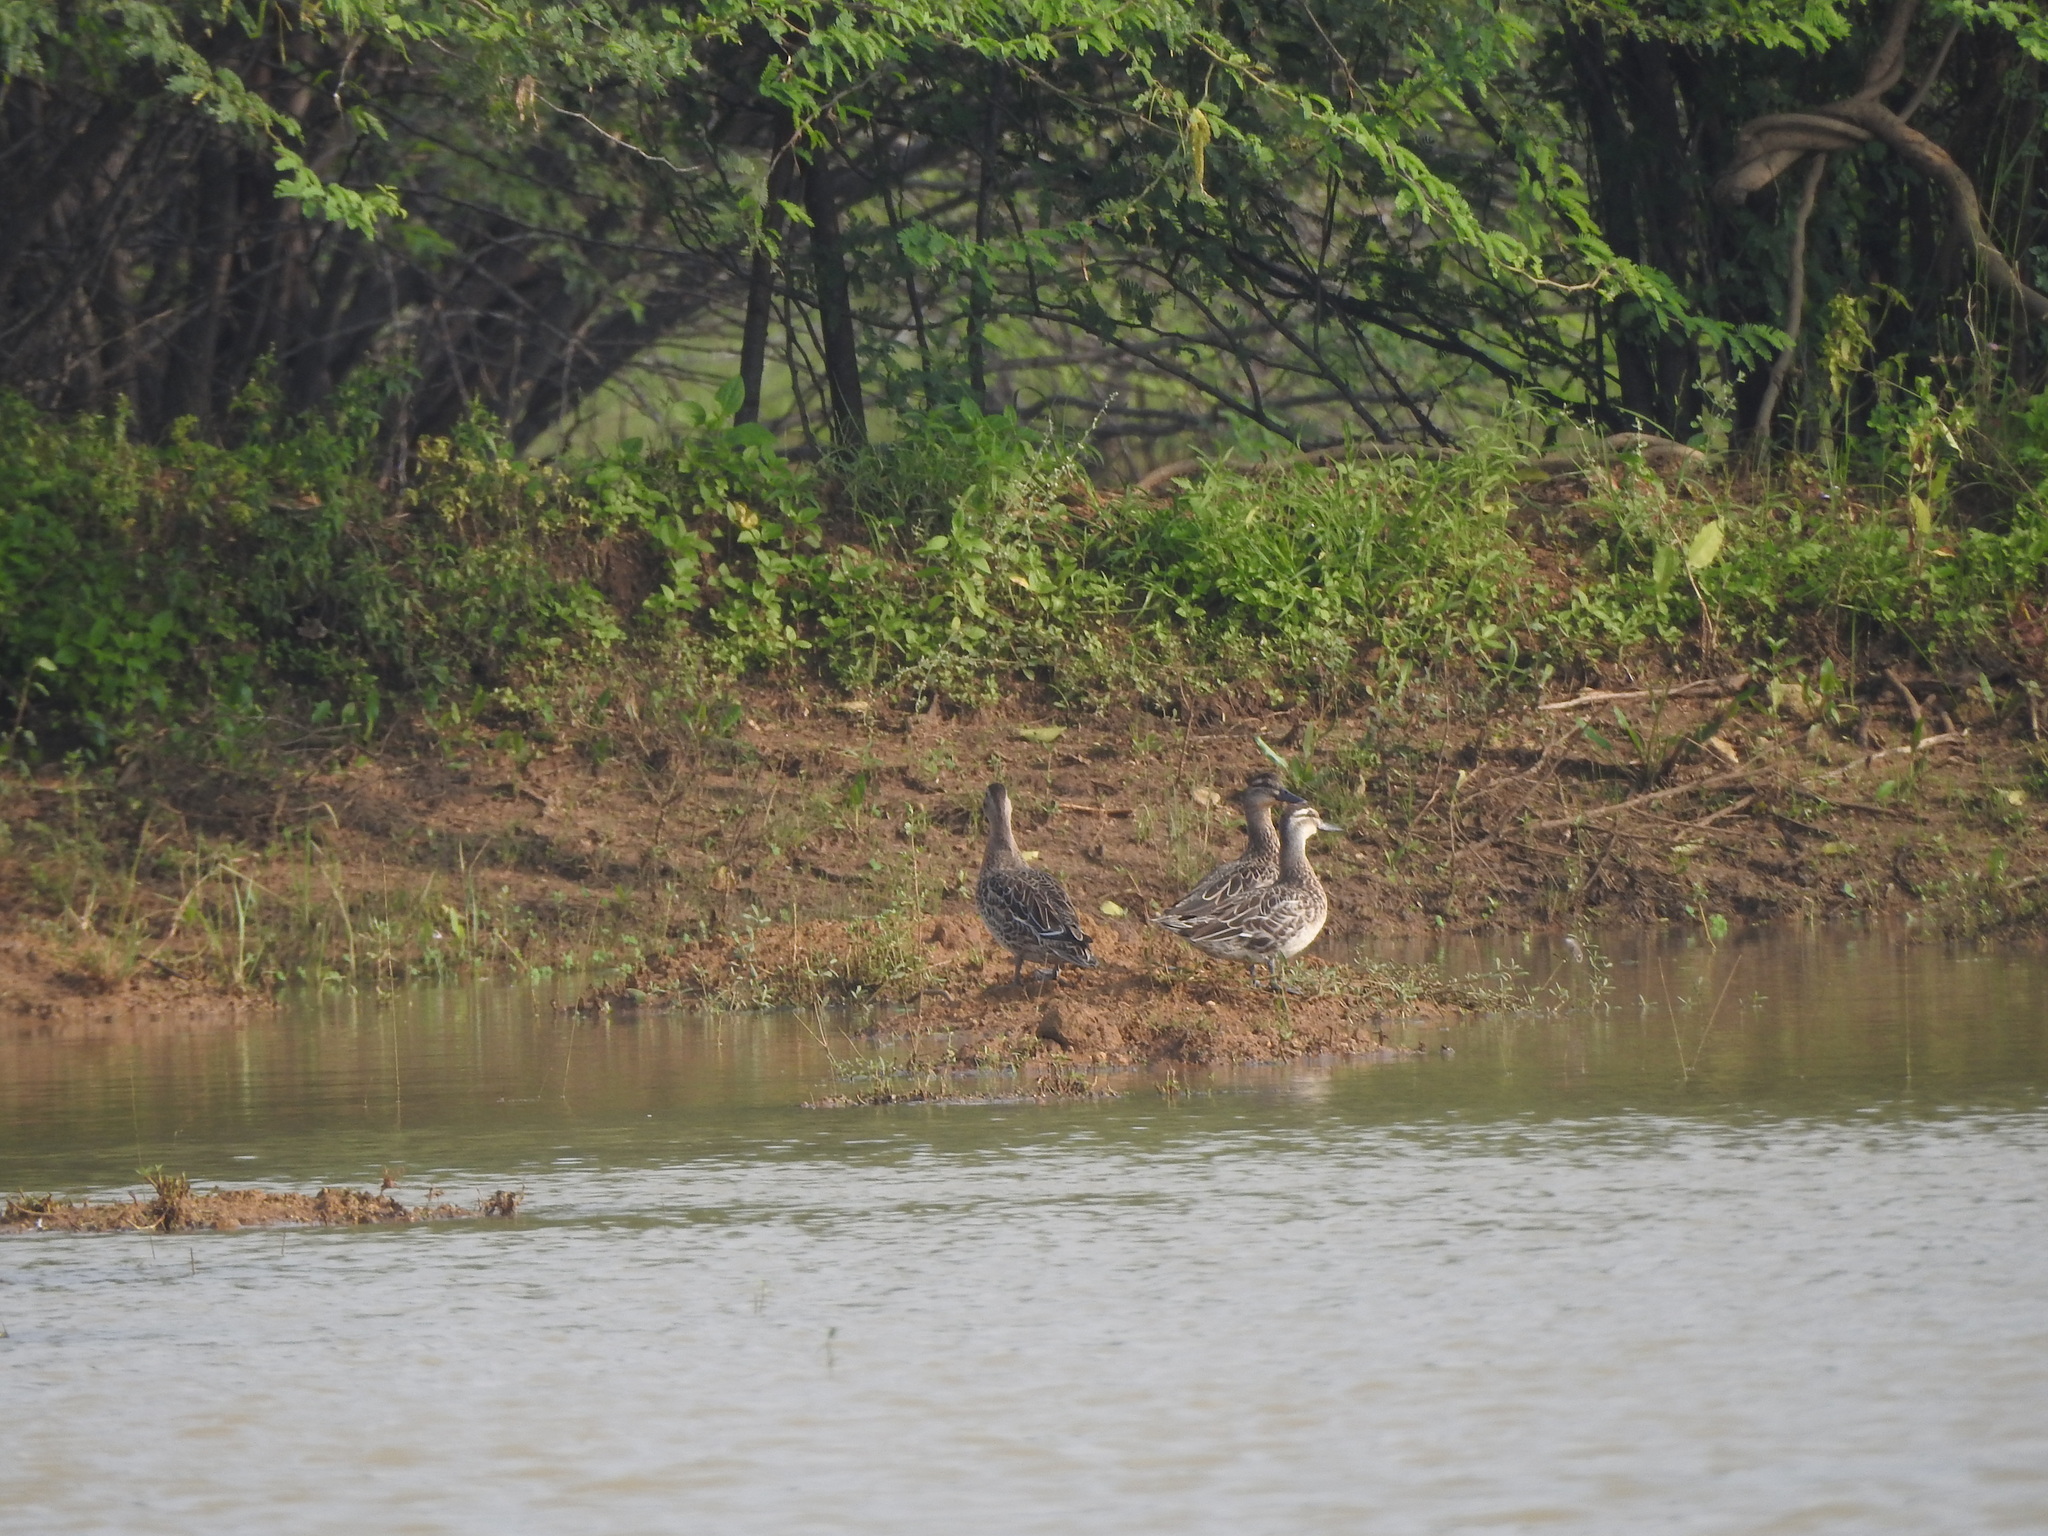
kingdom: Animalia
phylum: Chordata
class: Aves
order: Anseriformes
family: Anatidae
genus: Spatula
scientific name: Spatula querquedula
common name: Garganey
